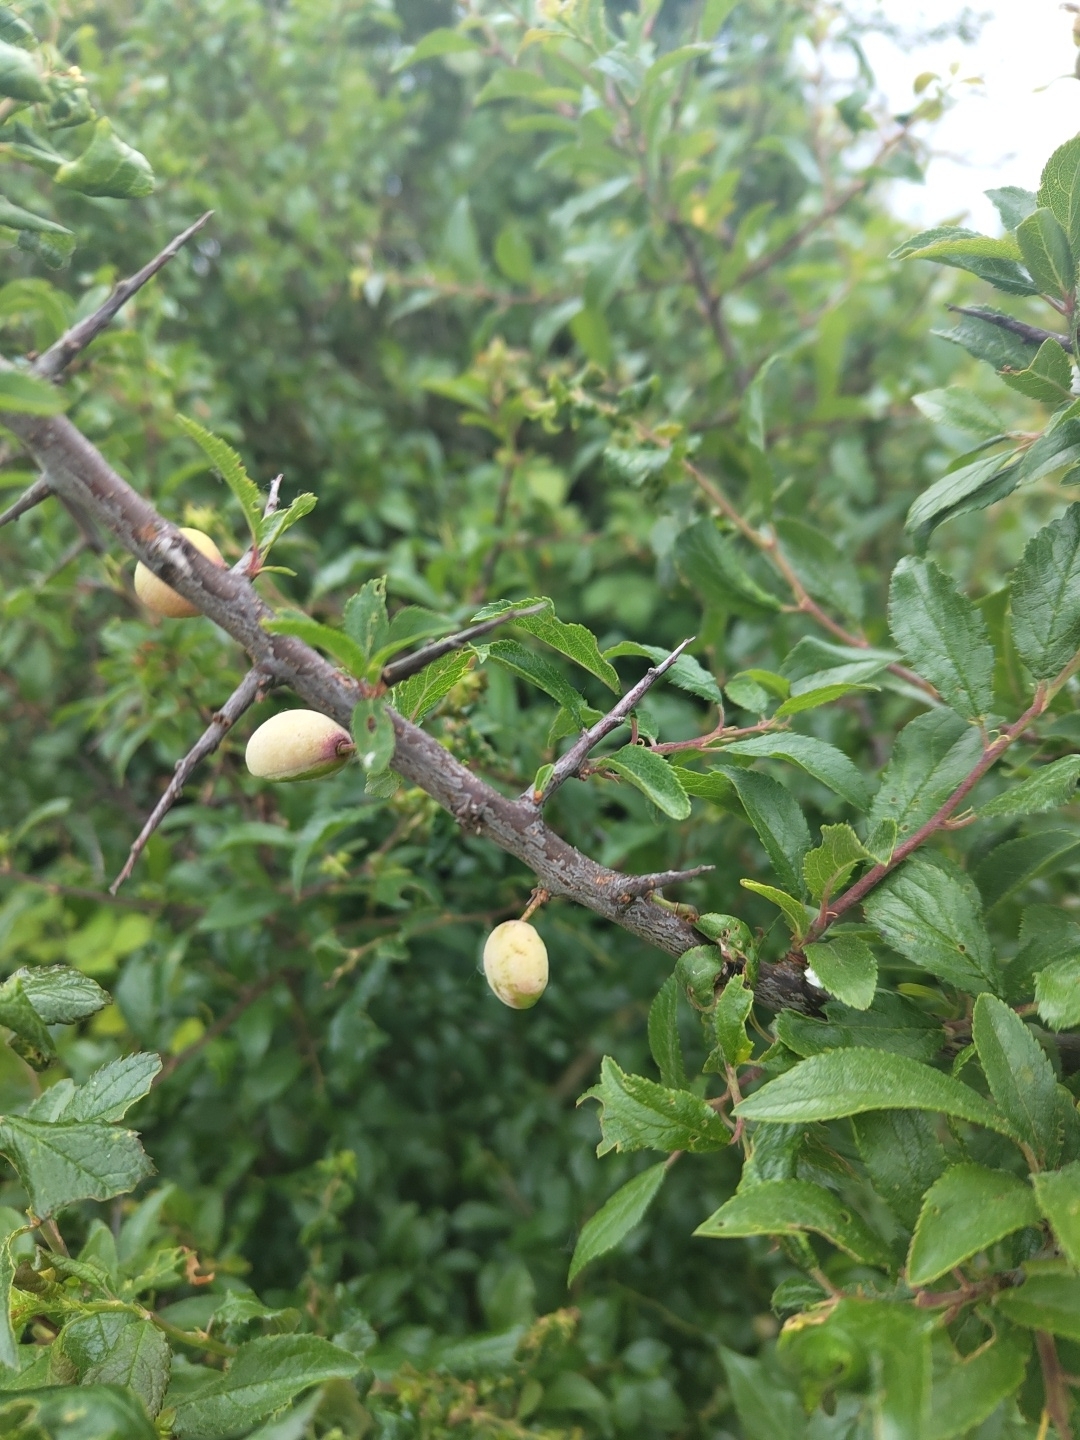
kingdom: Fungi
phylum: Ascomycota
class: Taphrinomycetes
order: Taphrinales
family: Taphrinaceae
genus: Taphrina
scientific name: Taphrina pruni
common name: Pocket plum
